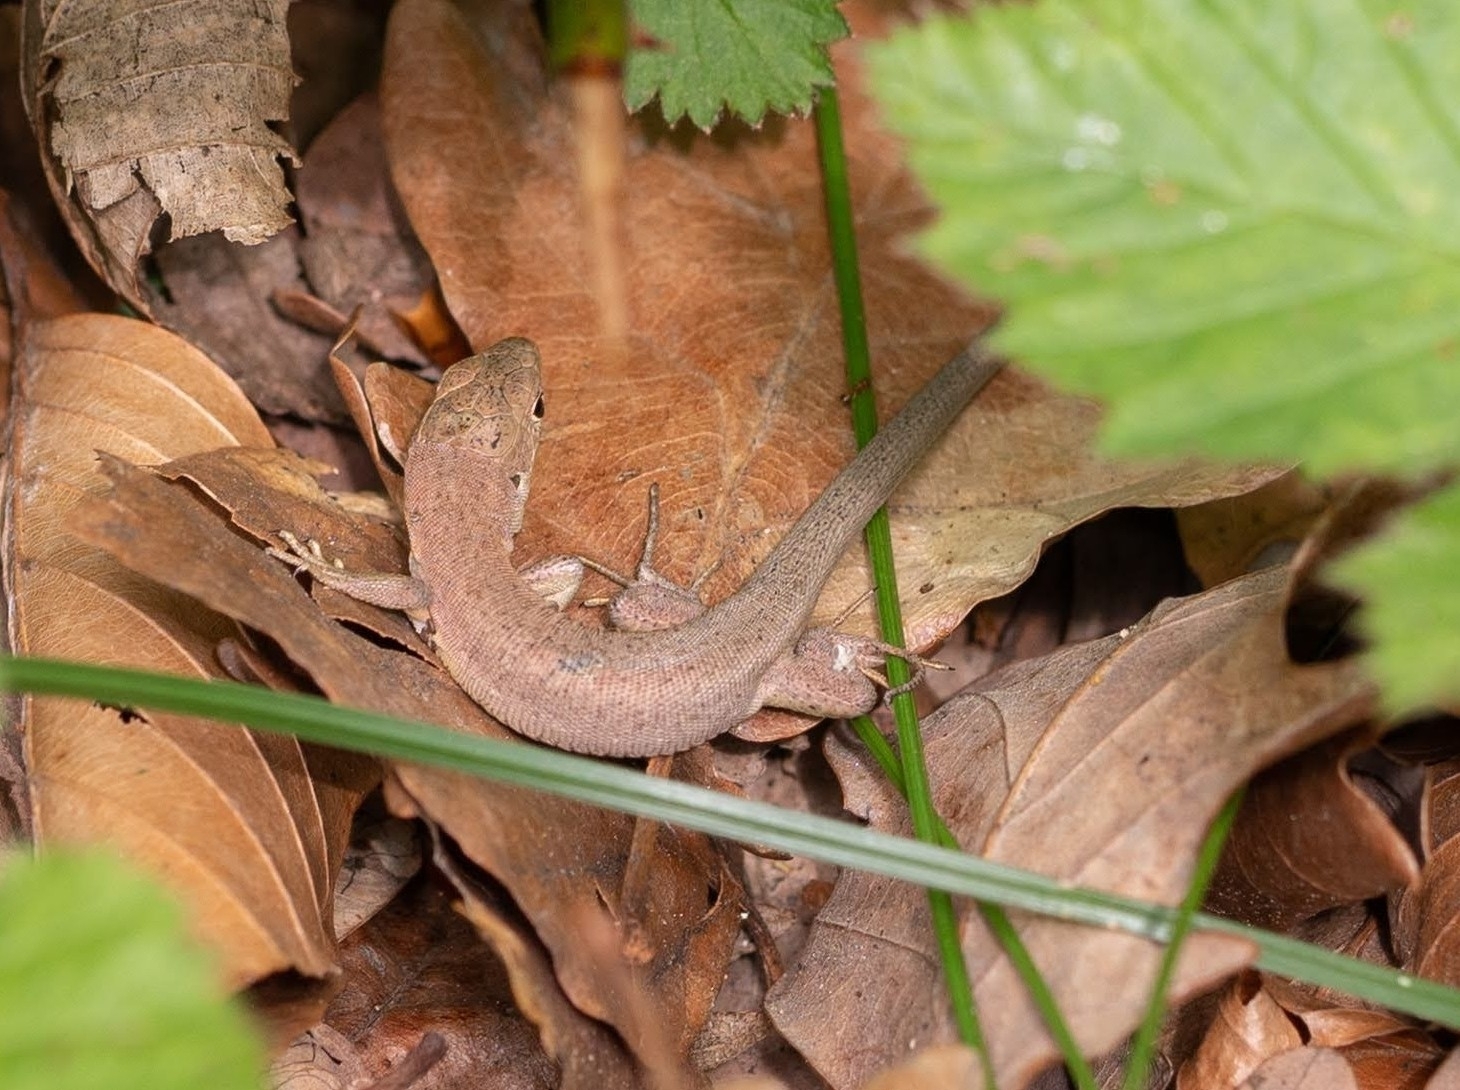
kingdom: Animalia
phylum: Chordata
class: Squamata
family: Lacertidae
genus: Lacerta
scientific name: Lacerta viridis
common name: European green lizard
